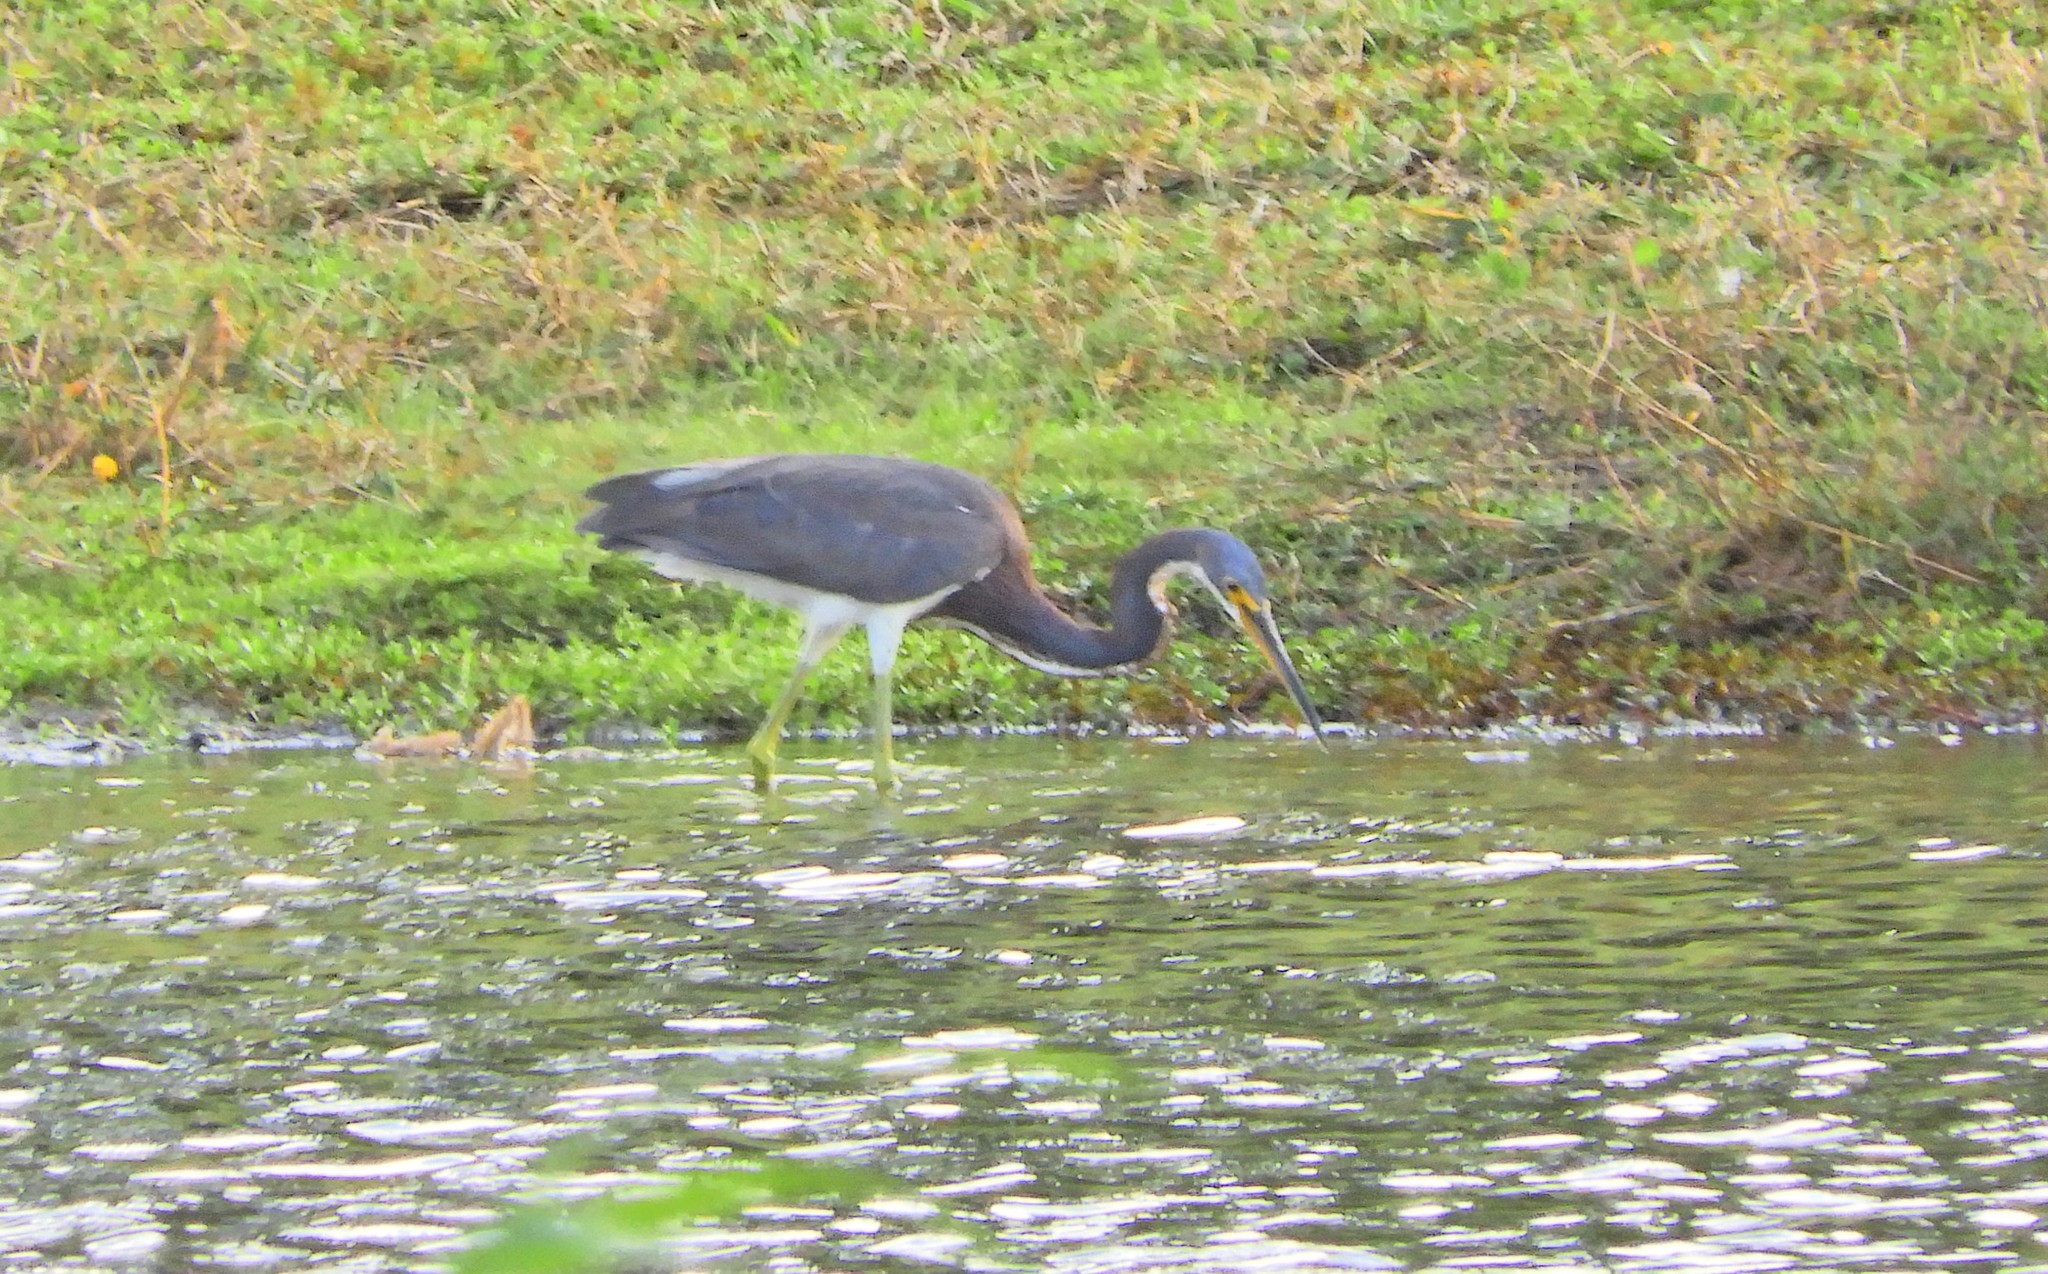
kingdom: Animalia
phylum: Chordata
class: Aves
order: Pelecaniformes
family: Ardeidae
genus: Egretta
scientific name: Egretta tricolor
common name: Tricolored heron
